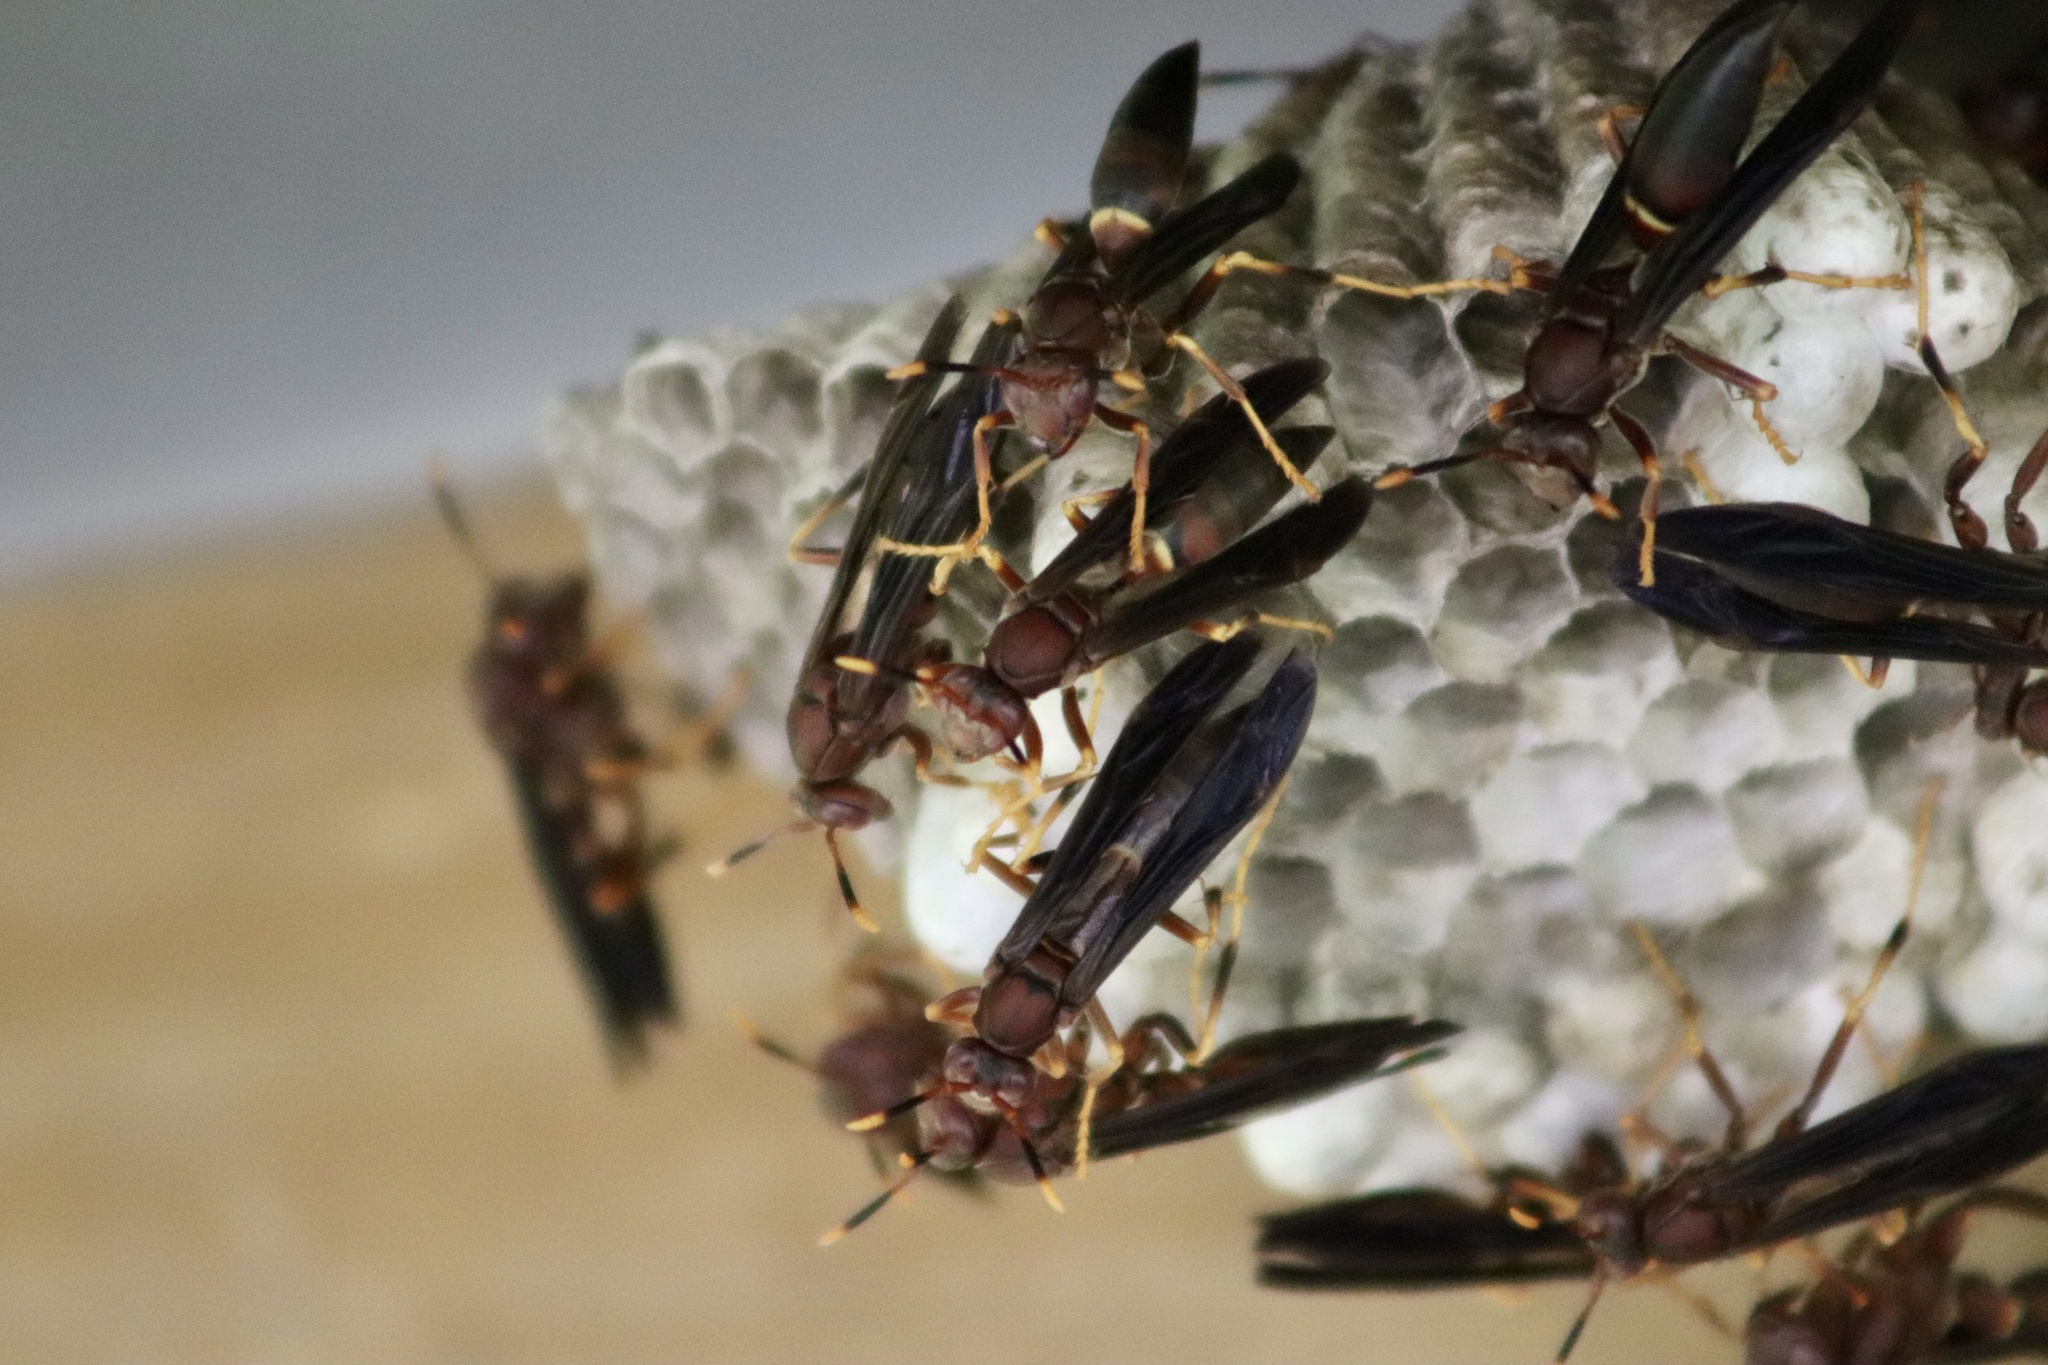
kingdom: Animalia
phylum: Arthropoda
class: Insecta
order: Hymenoptera
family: Eumenidae
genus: Polistes
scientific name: Polistes annularis
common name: Ringed paper wasp
